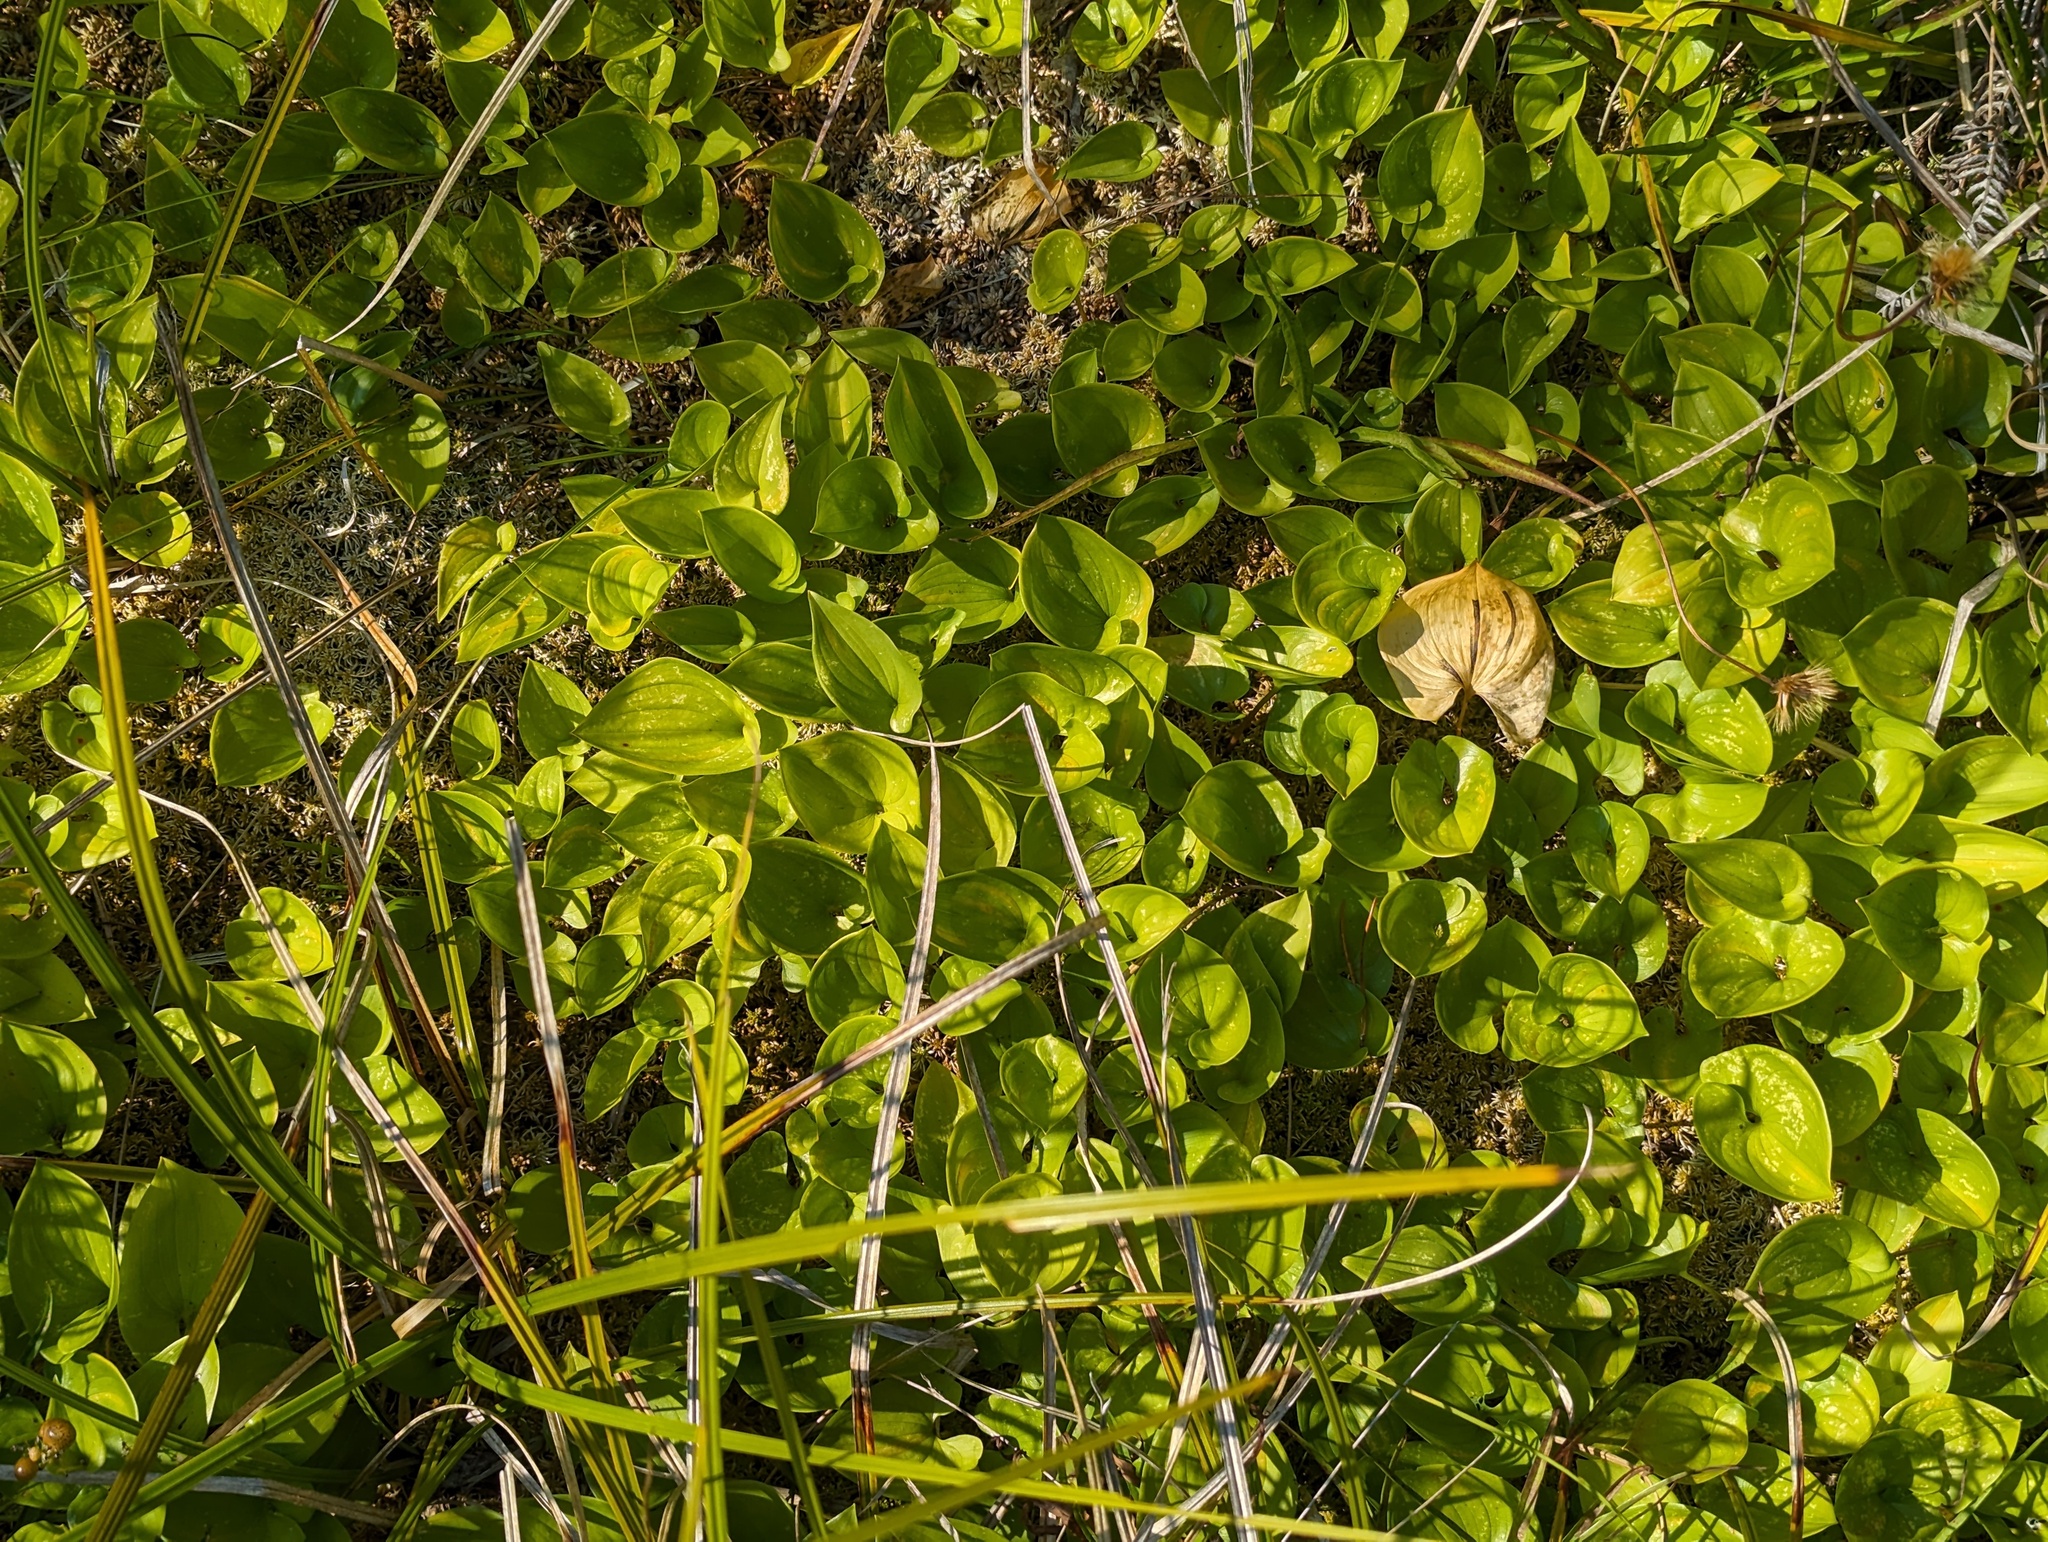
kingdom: Plantae
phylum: Tracheophyta
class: Liliopsida
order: Asparagales
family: Asparagaceae
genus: Maianthemum
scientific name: Maianthemum dilatatum
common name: False lily-of-the-valley
